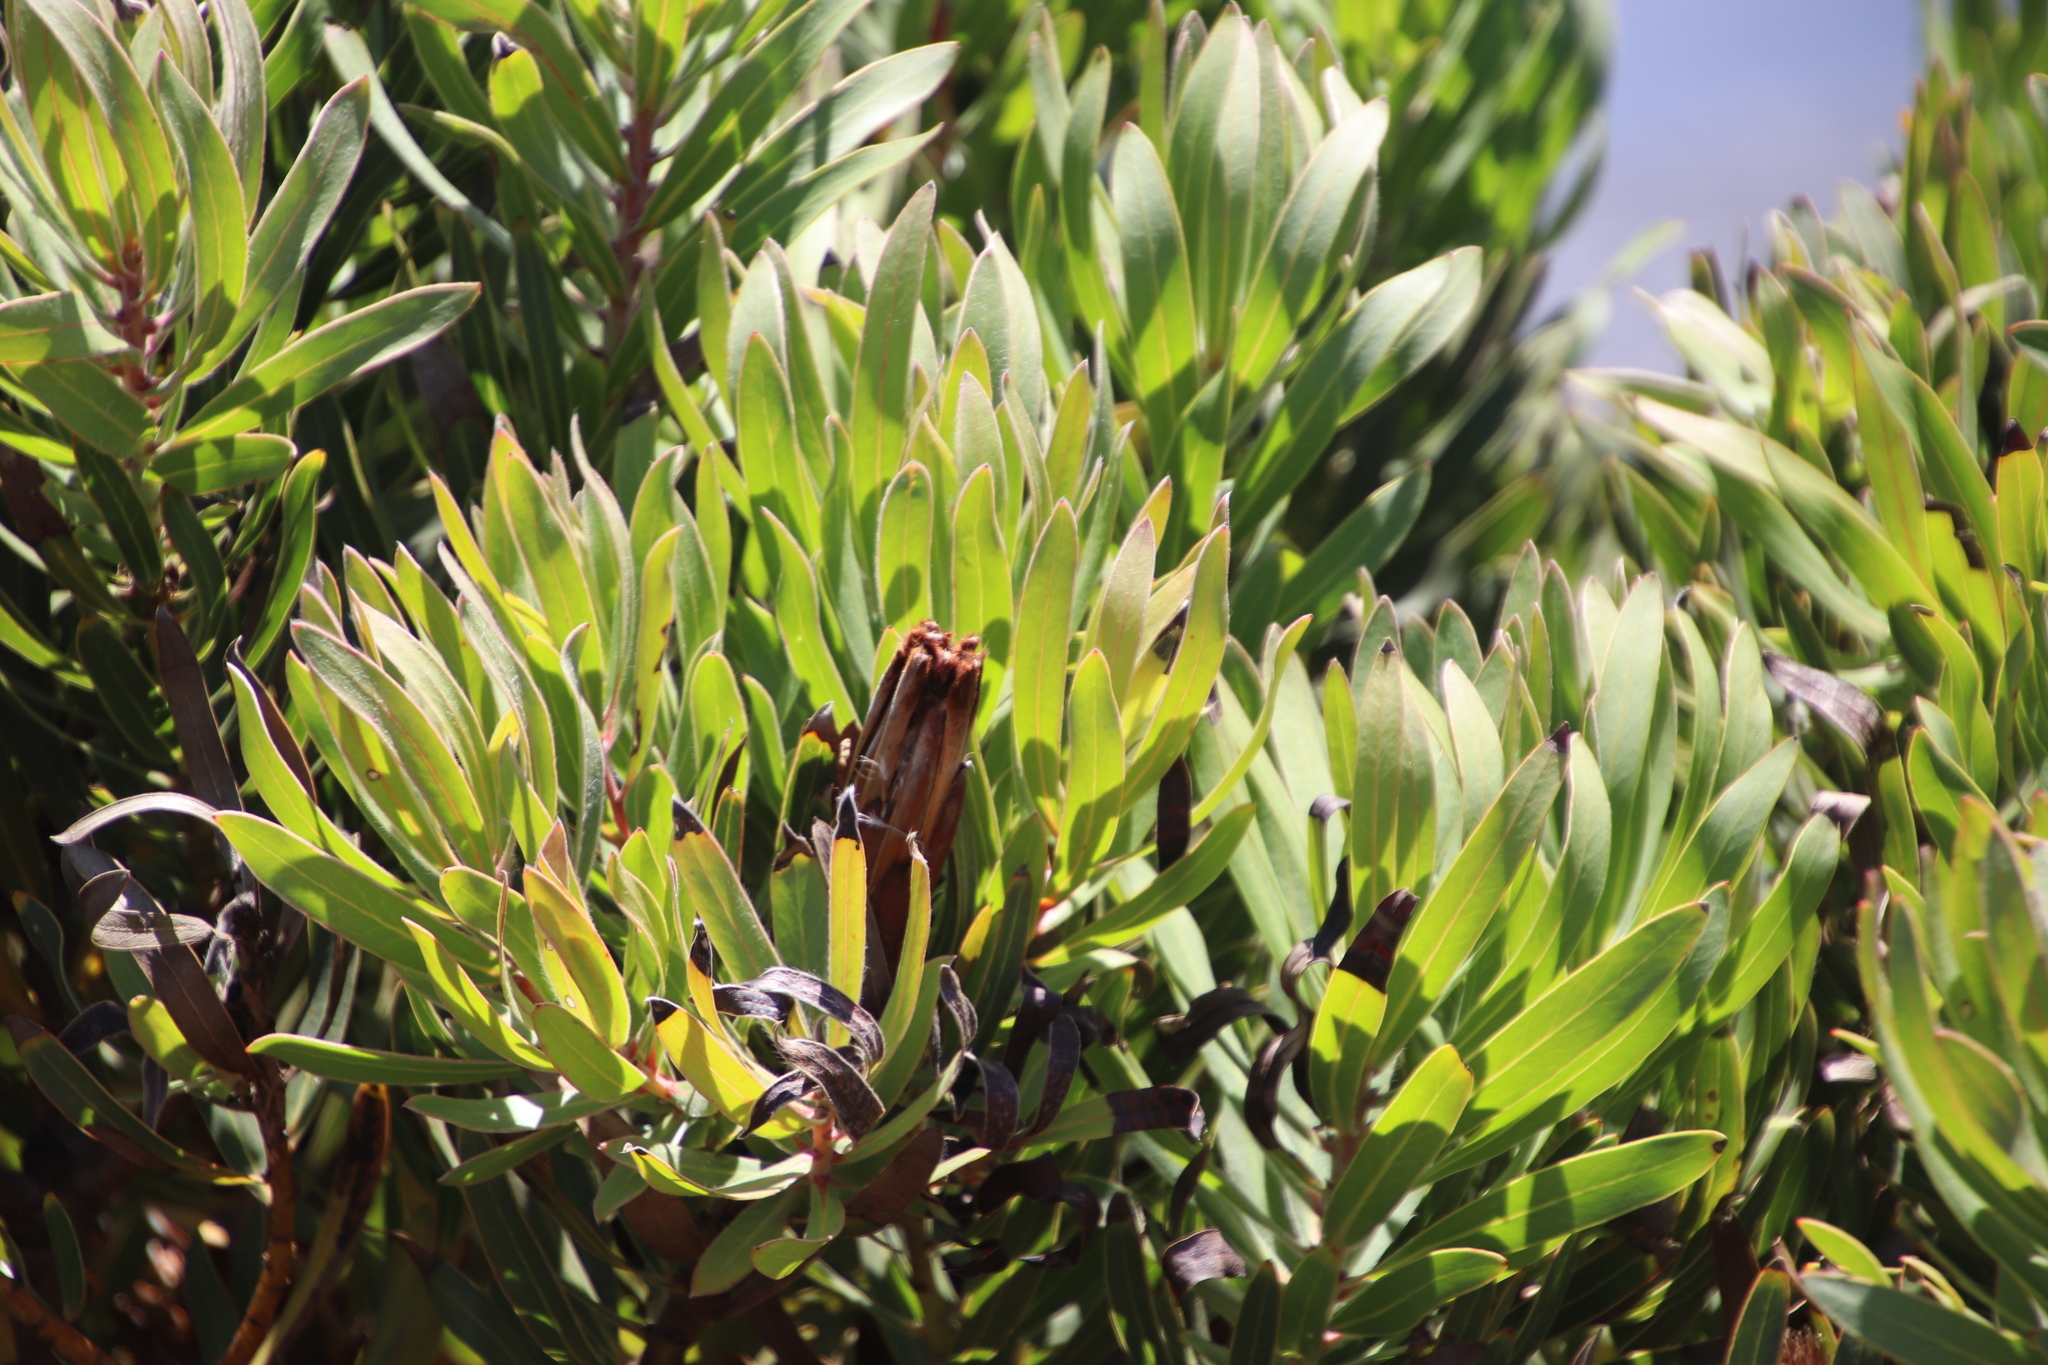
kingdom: Plantae
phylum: Tracheophyta
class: Magnoliopsida
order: Proteales
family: Proteaceae
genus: Protea
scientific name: Protea lepidocarpodendron
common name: Black-bearded protea
